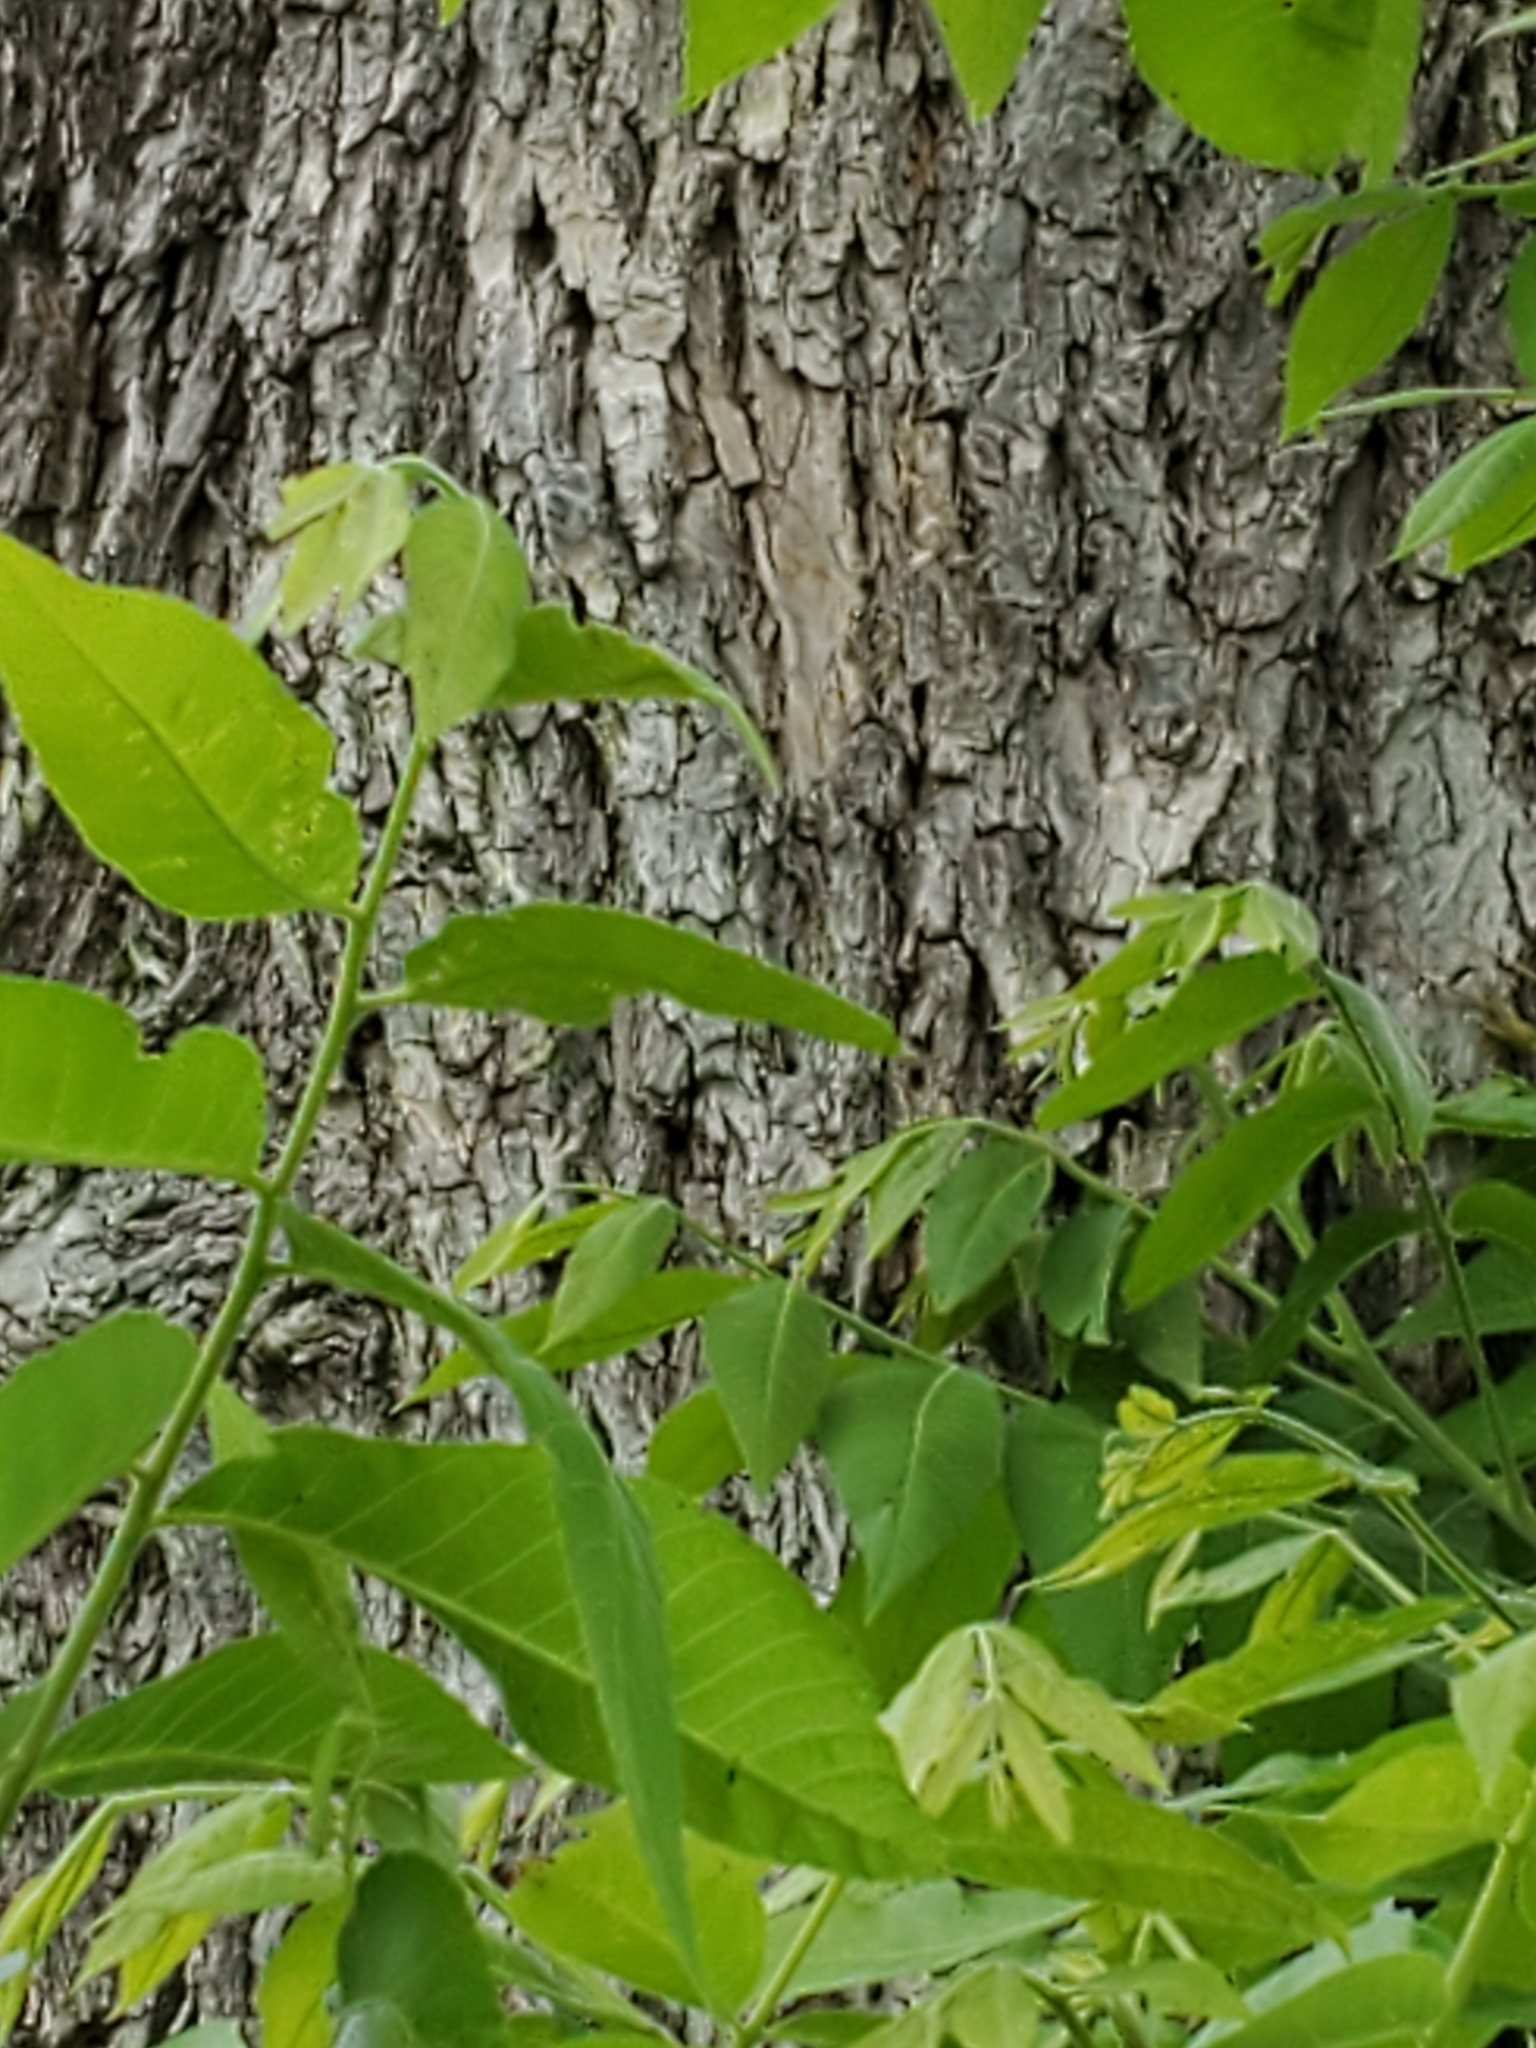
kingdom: Plantae
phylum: Tracheophyta
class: Magnoliopsida
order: Fagales
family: Juglandaceae
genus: Carya
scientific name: Carya illinoinensis
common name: Pecan
